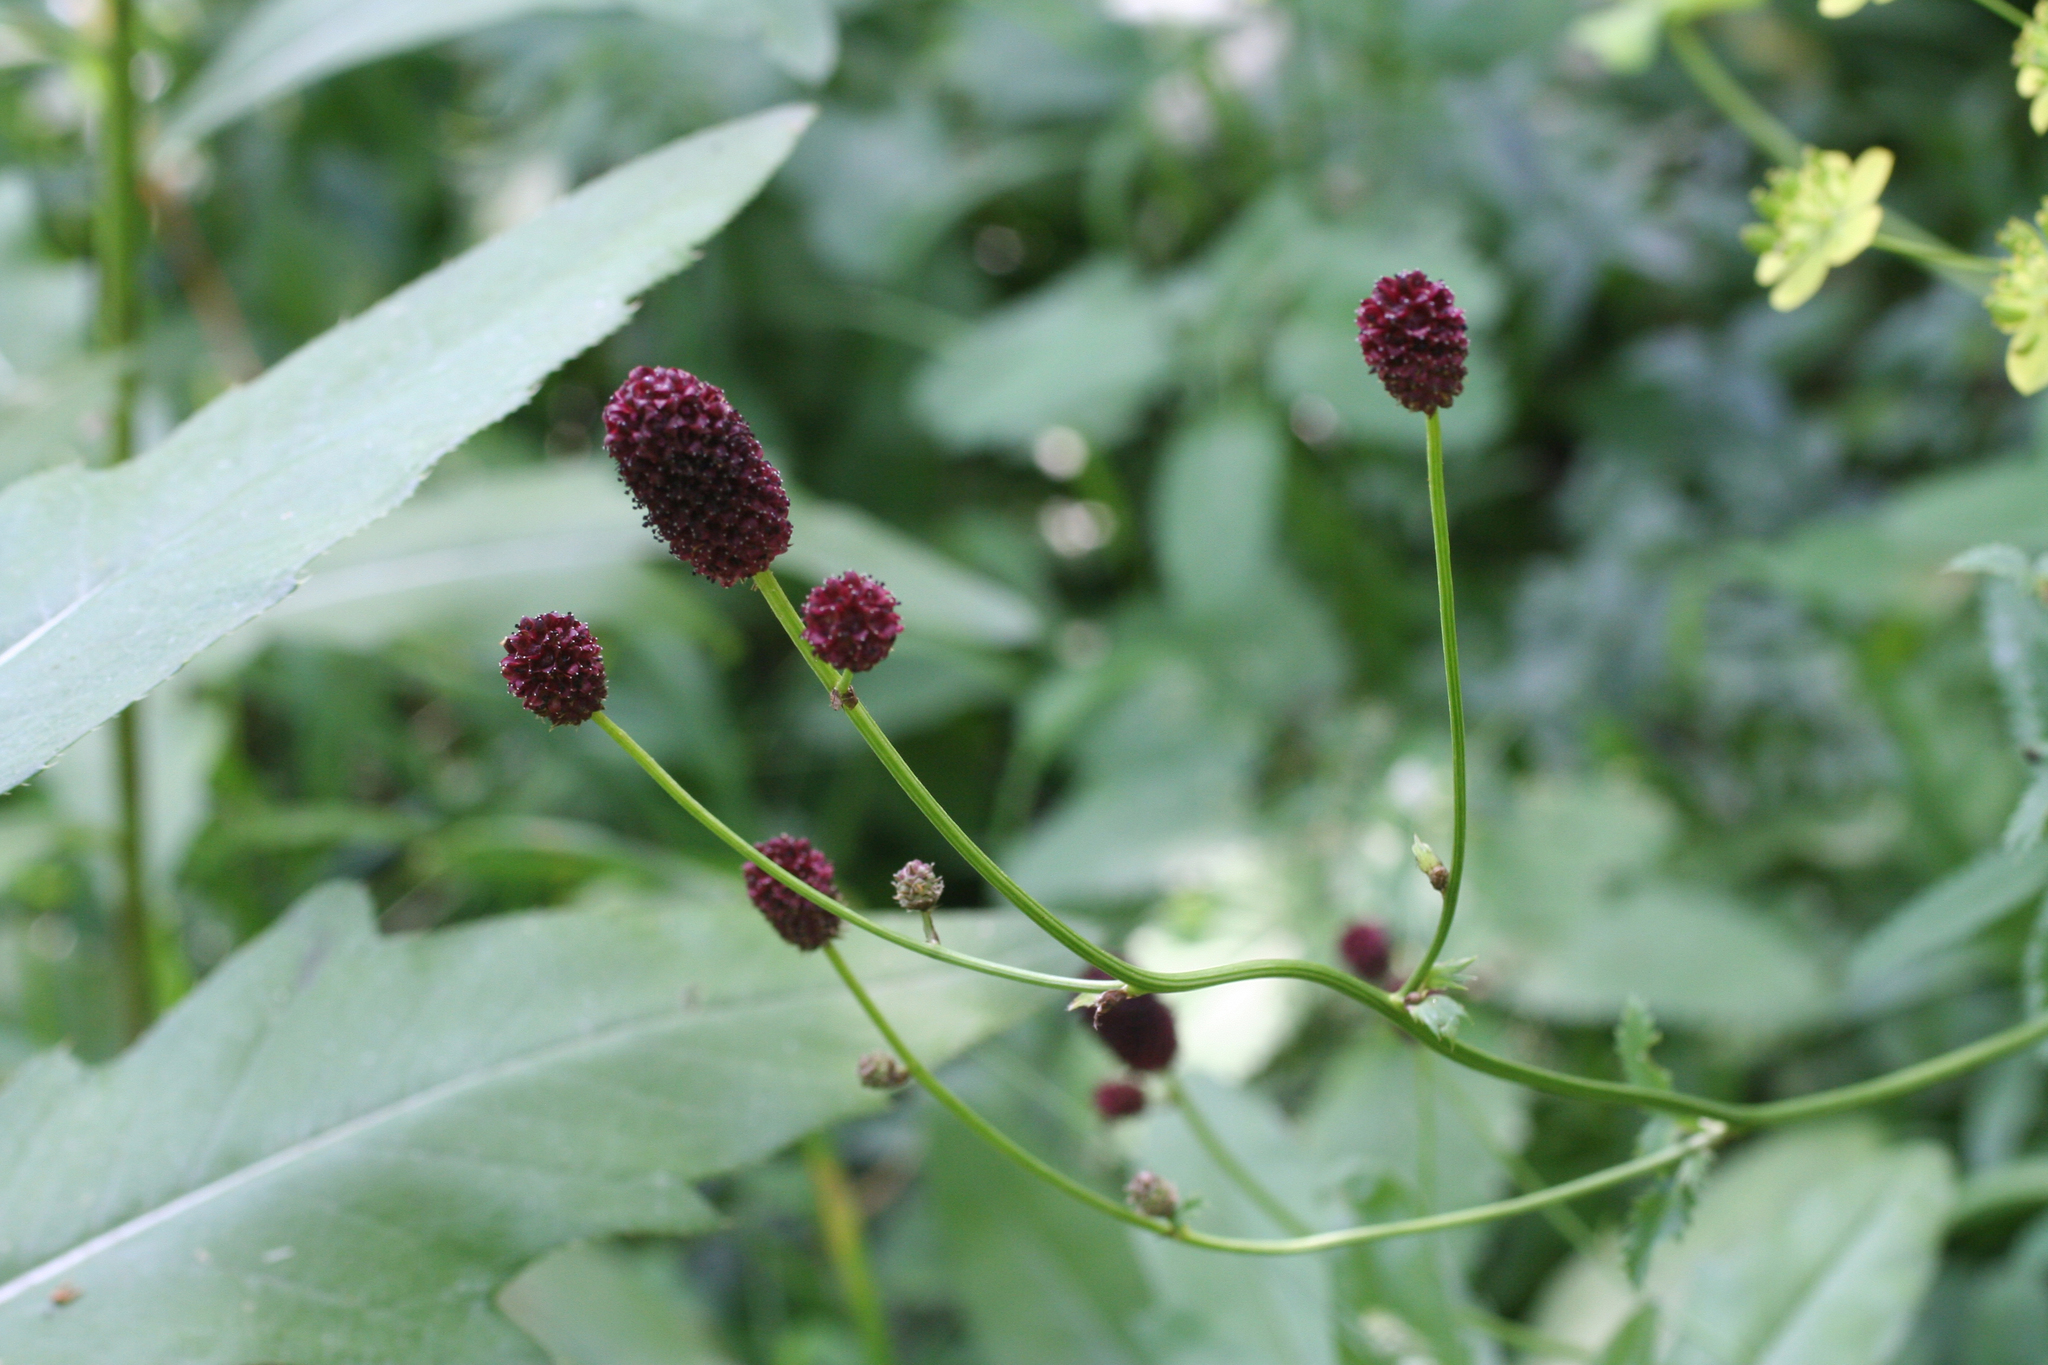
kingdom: Plantae
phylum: Tracheophyta
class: Magnoliopsida
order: Rosales
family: Rosaceae
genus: Sanguisorba
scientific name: Sanguisorba officinalis
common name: Great burnet
